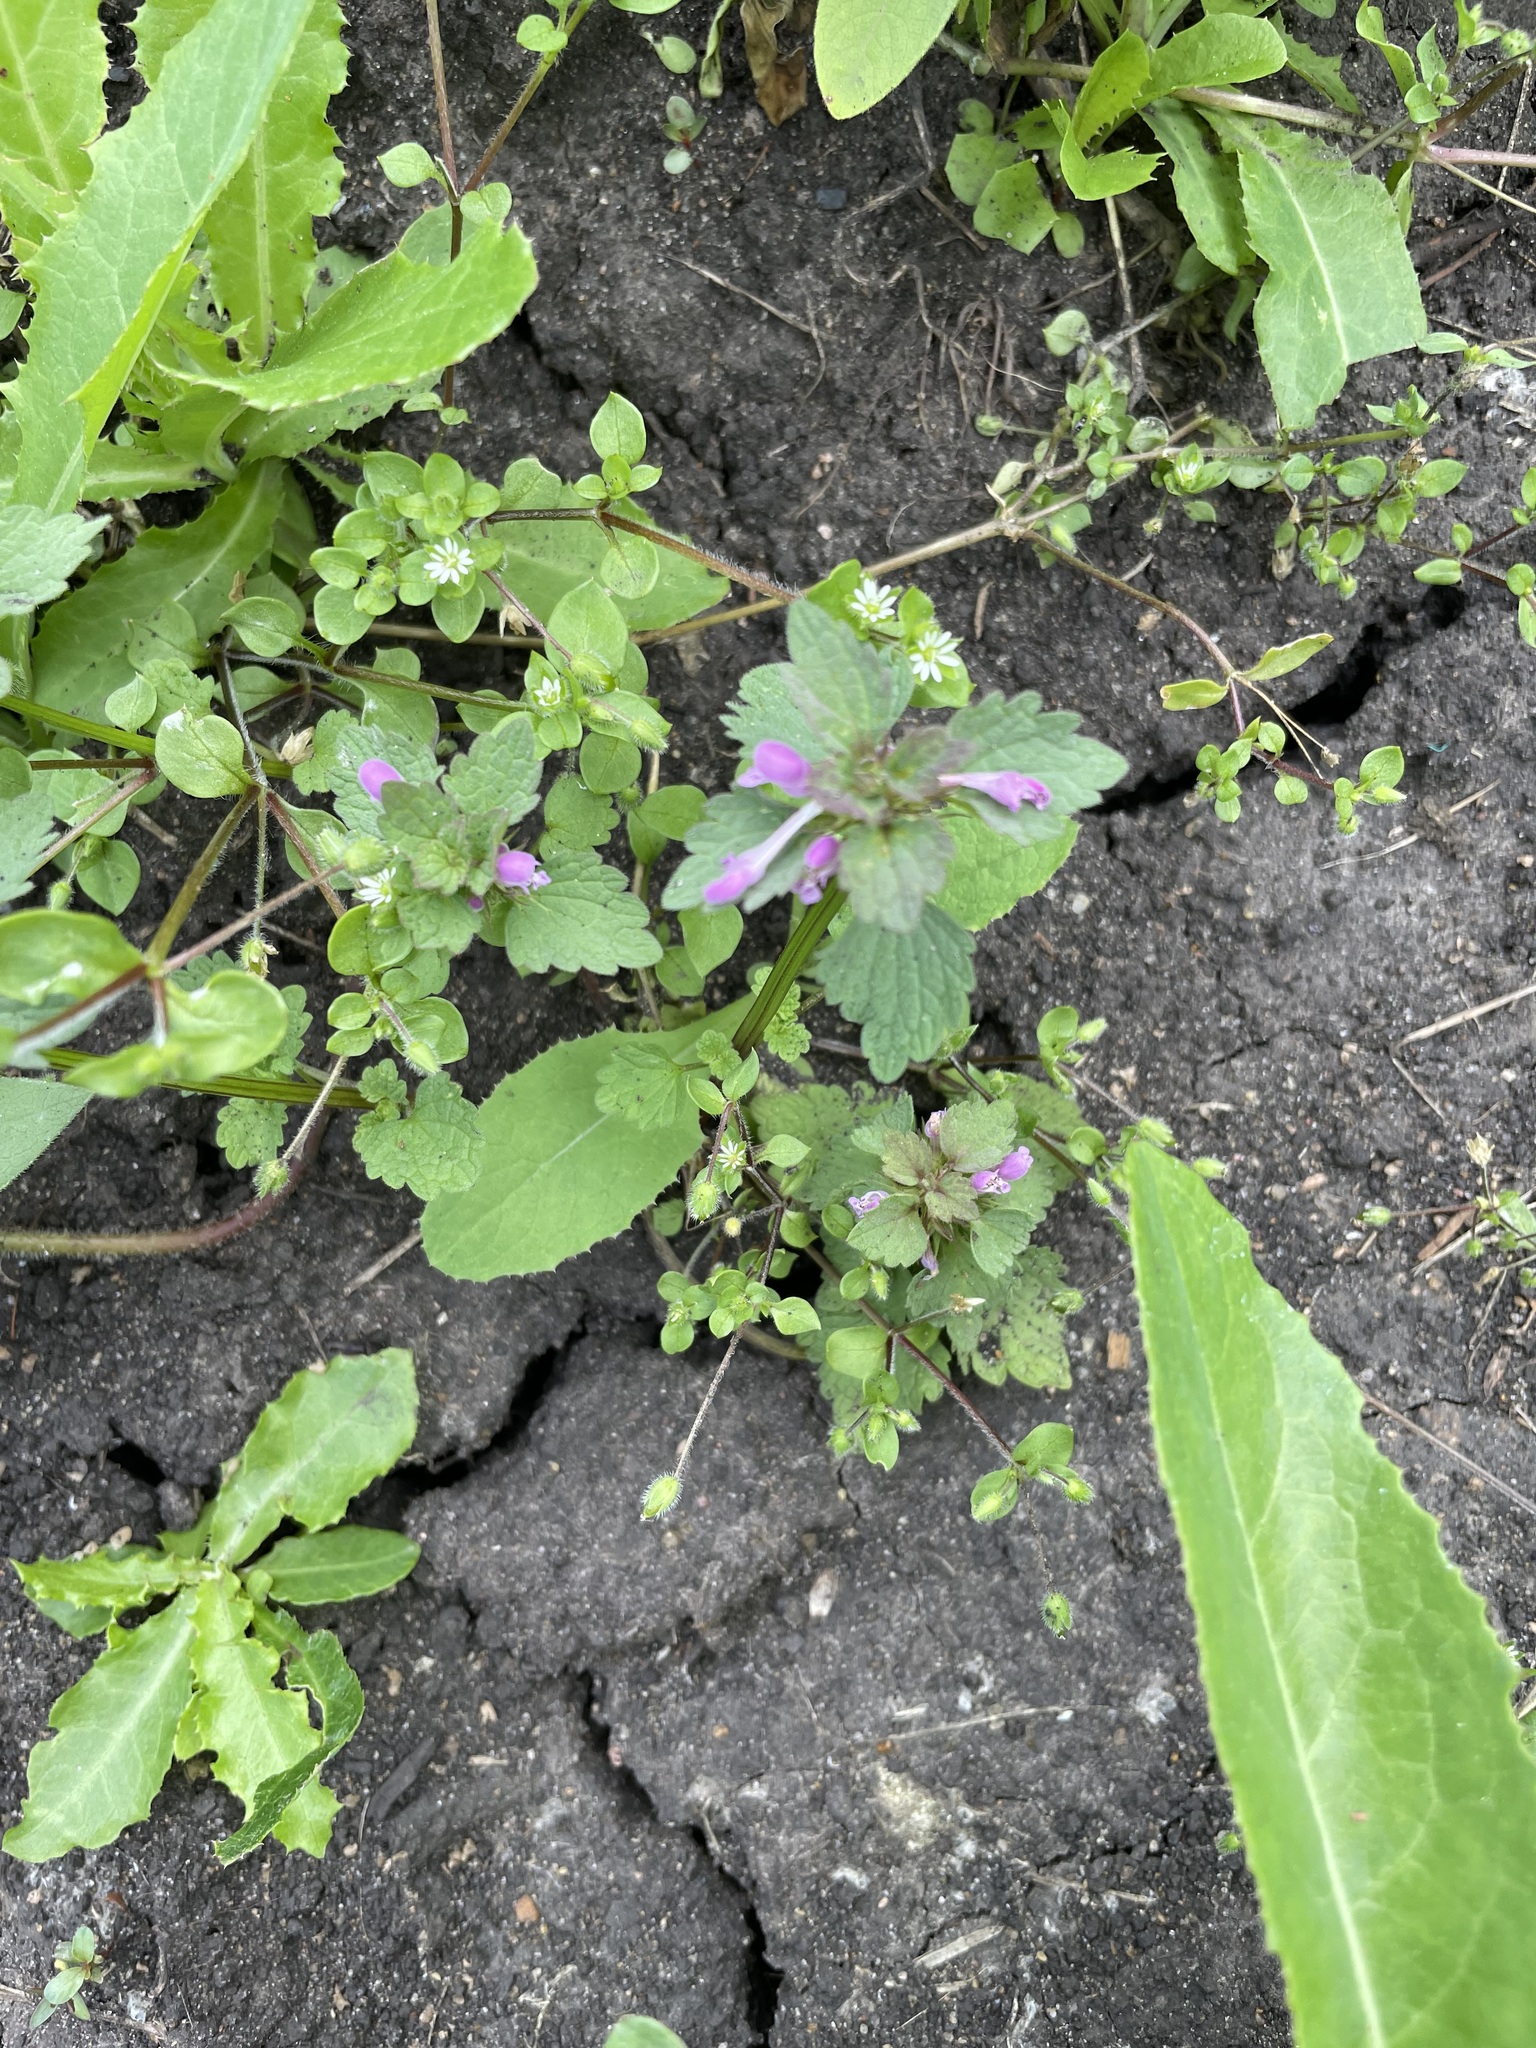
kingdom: Plantae
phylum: Tracheophyta
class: Magnoliopsida
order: Lamiales
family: Lamiaceae
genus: Lamium
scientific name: Lamium purpureum
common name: Red dead-nettle
